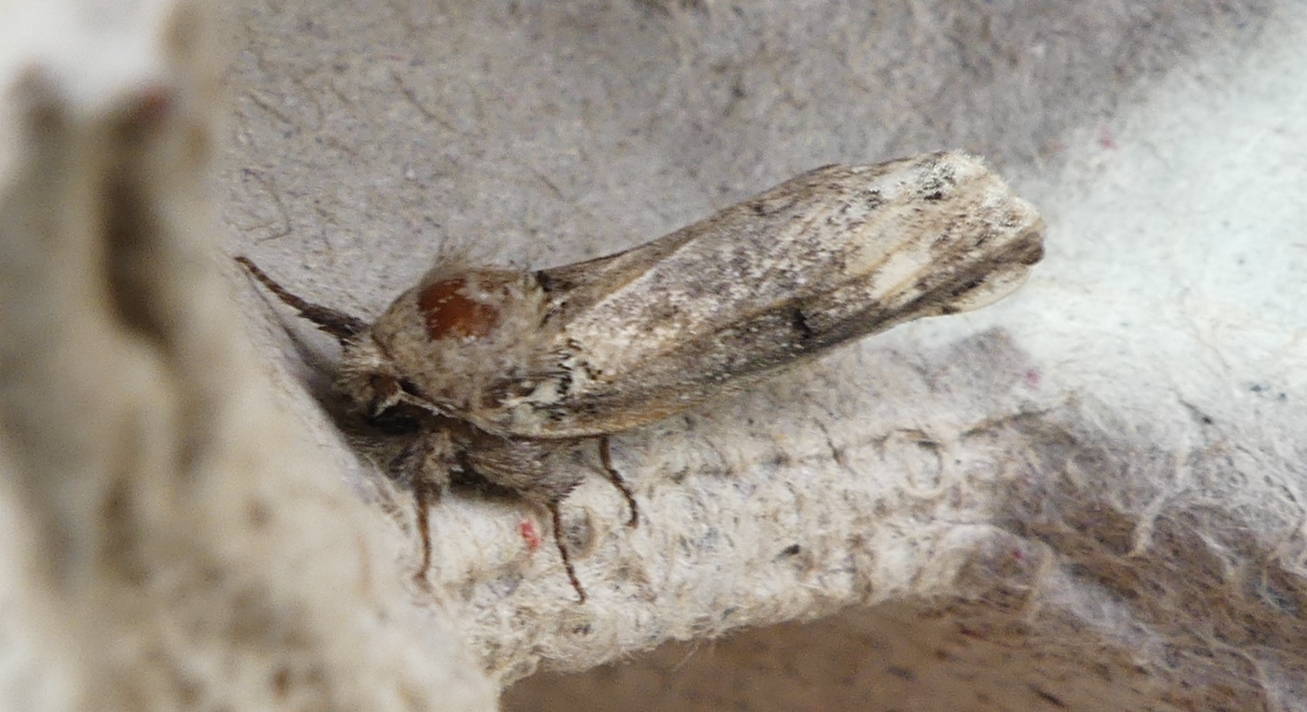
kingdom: Animalia
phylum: Arthropoda
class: Insecta
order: Lepidoptera
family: Notodontidae
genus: Schizura
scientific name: Schizura
